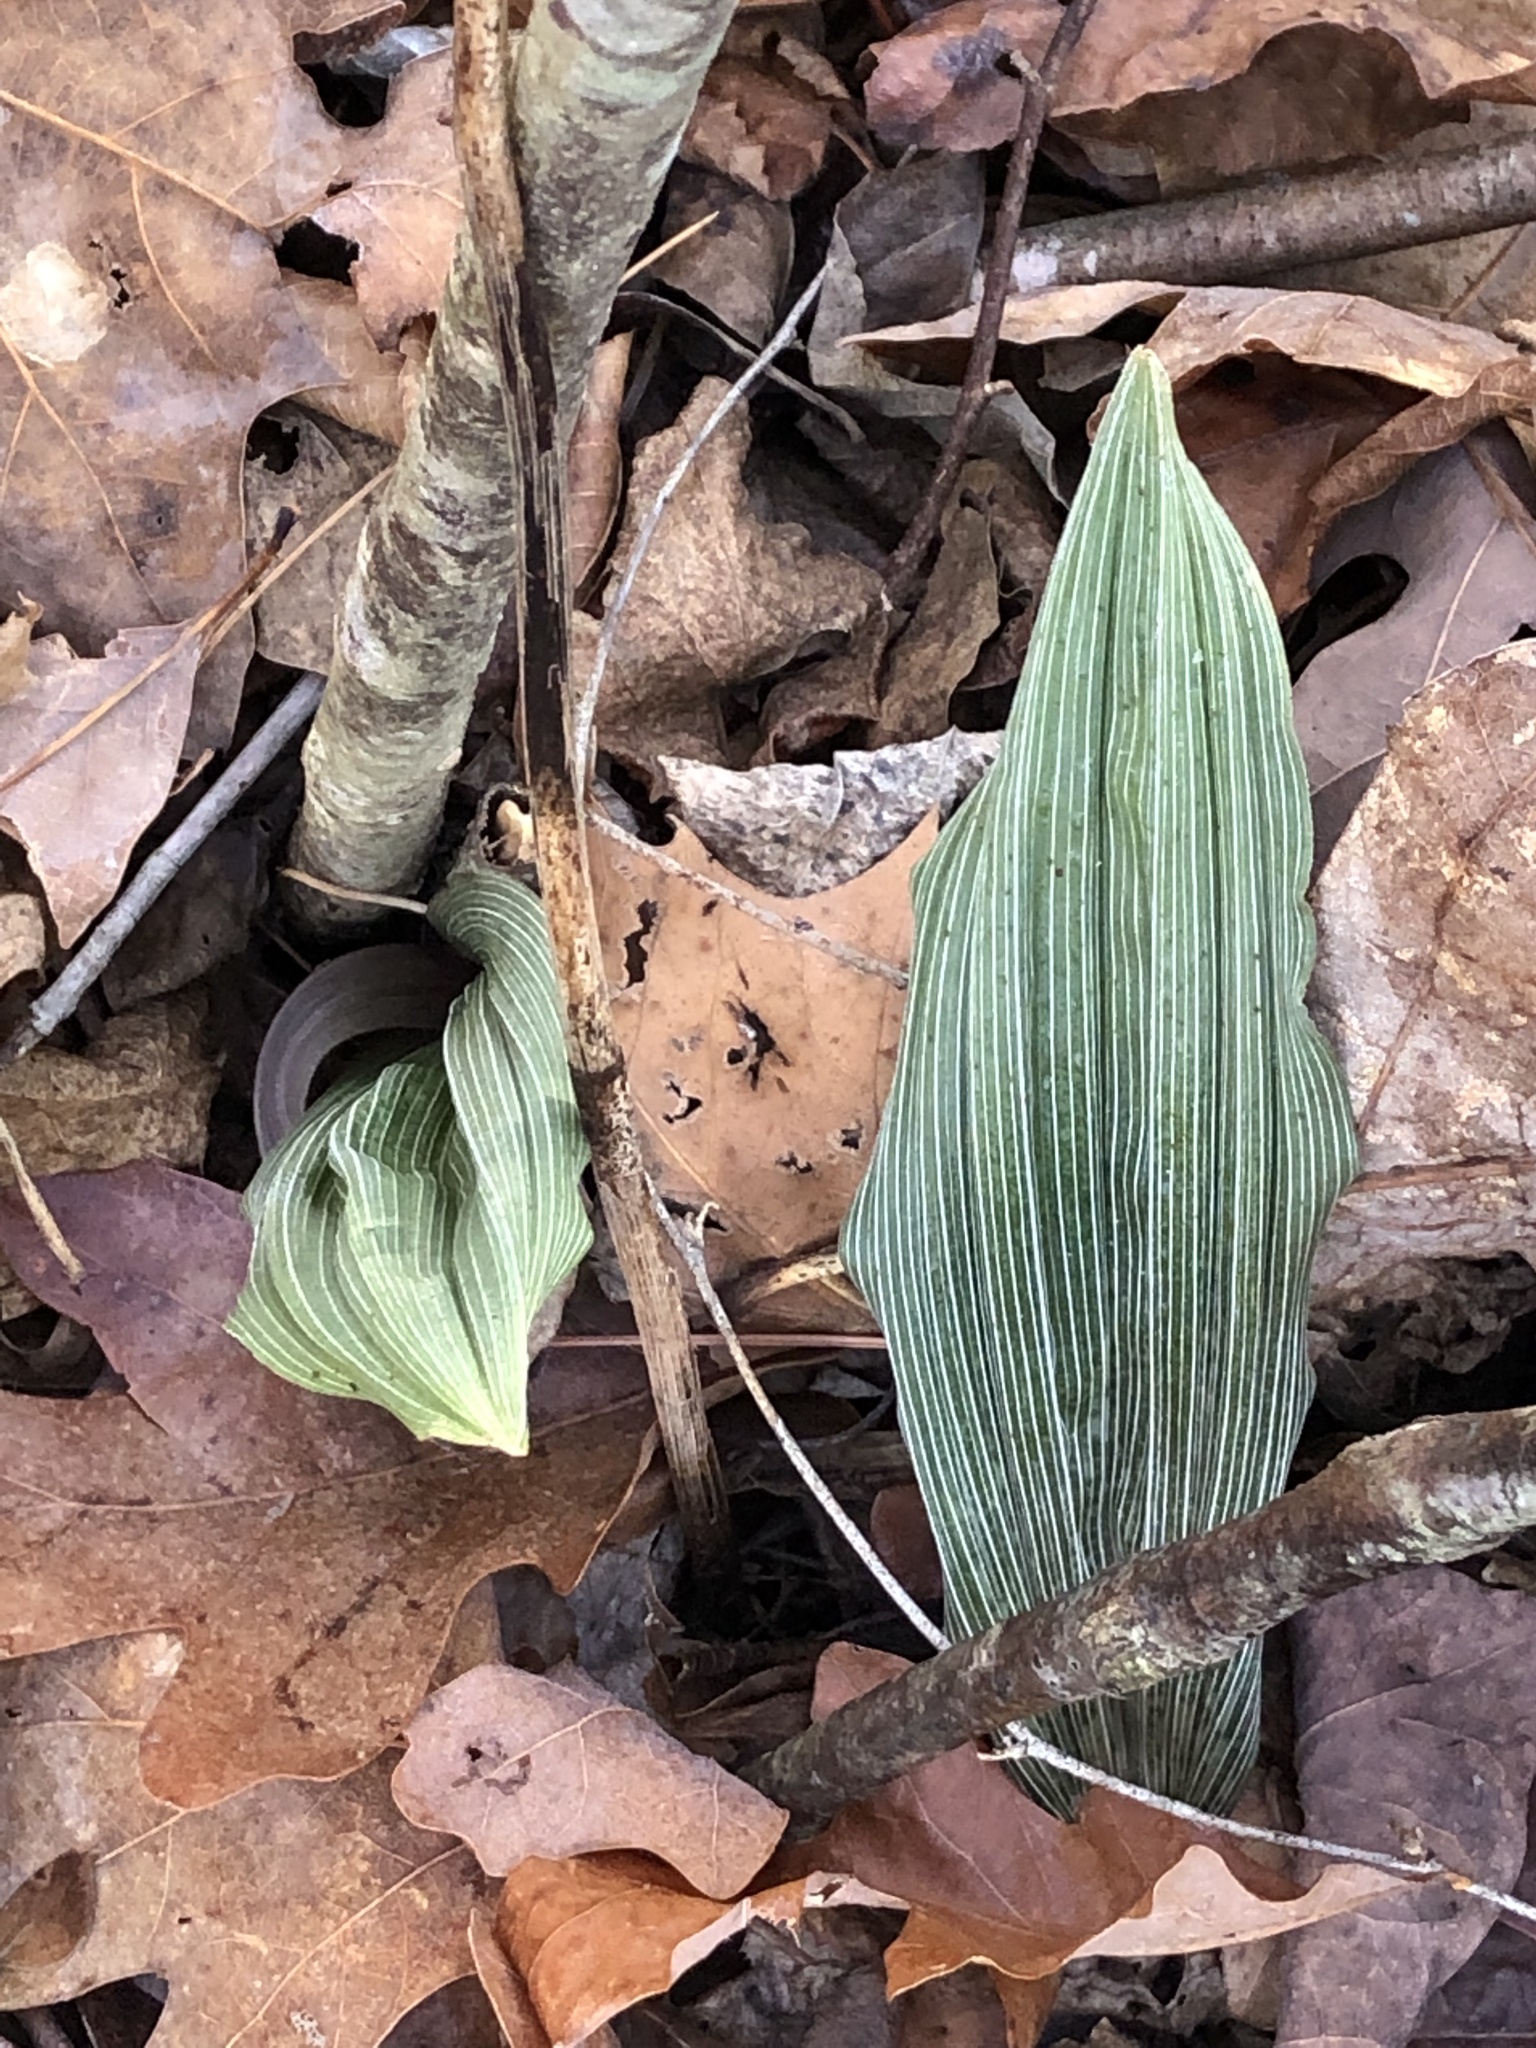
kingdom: Plantae
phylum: Tracheophyta
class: Liliopsida
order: Asparagales
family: Orchidaceae
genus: Aplectrum
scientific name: Aplectrum hyemale
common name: Adam-and-eve
